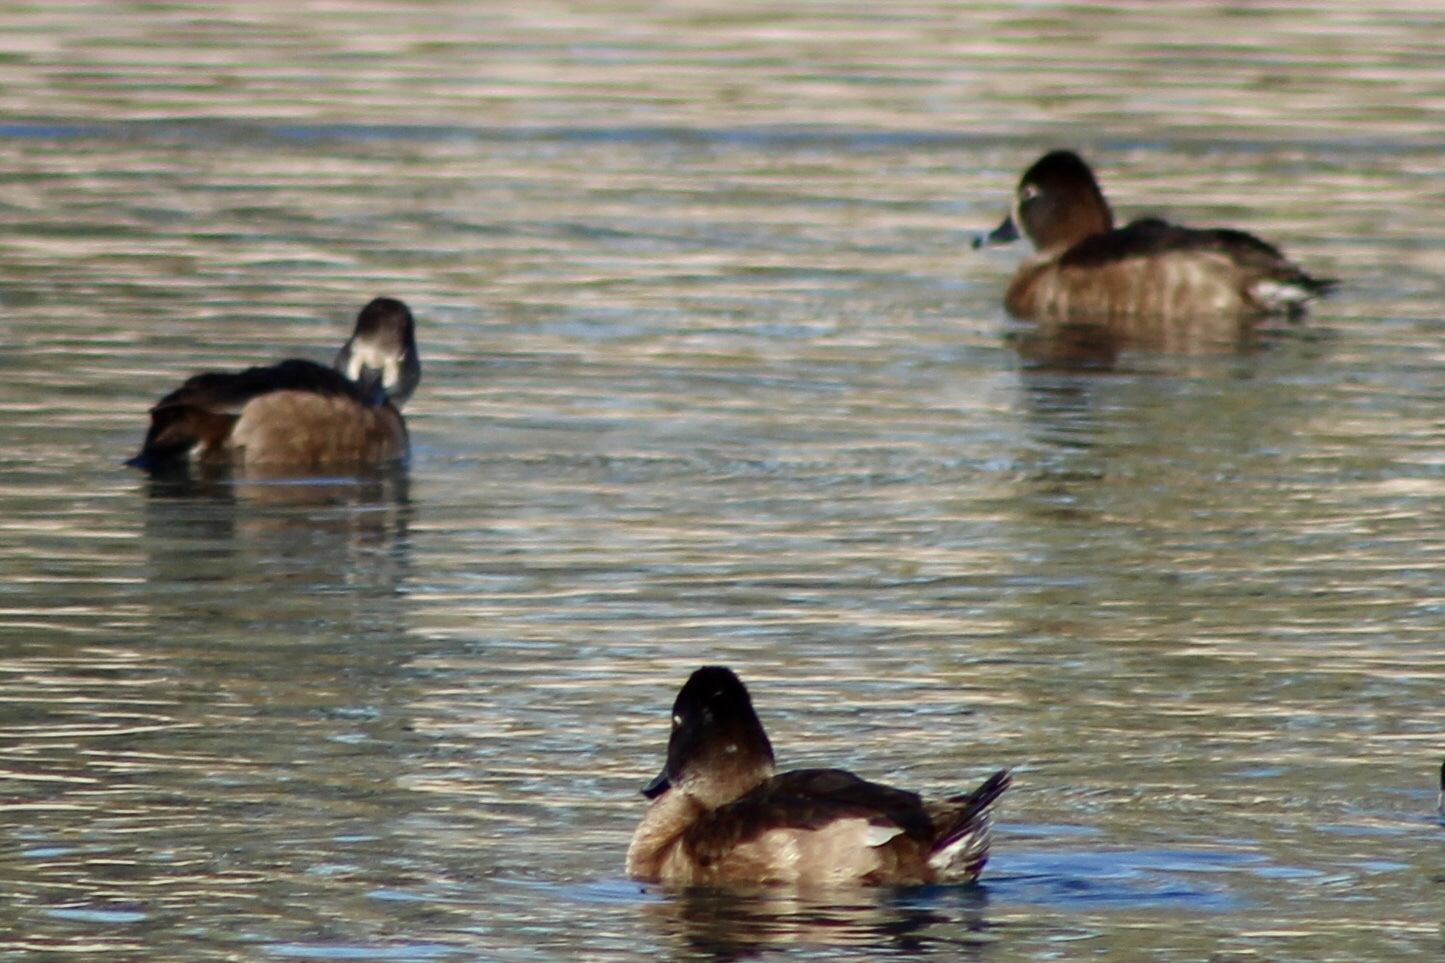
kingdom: Animalia
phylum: Chordata
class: Aves
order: Anseriformes
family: Anatidae
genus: Aythya
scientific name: Aythya collaris
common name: Ring-necked duck
